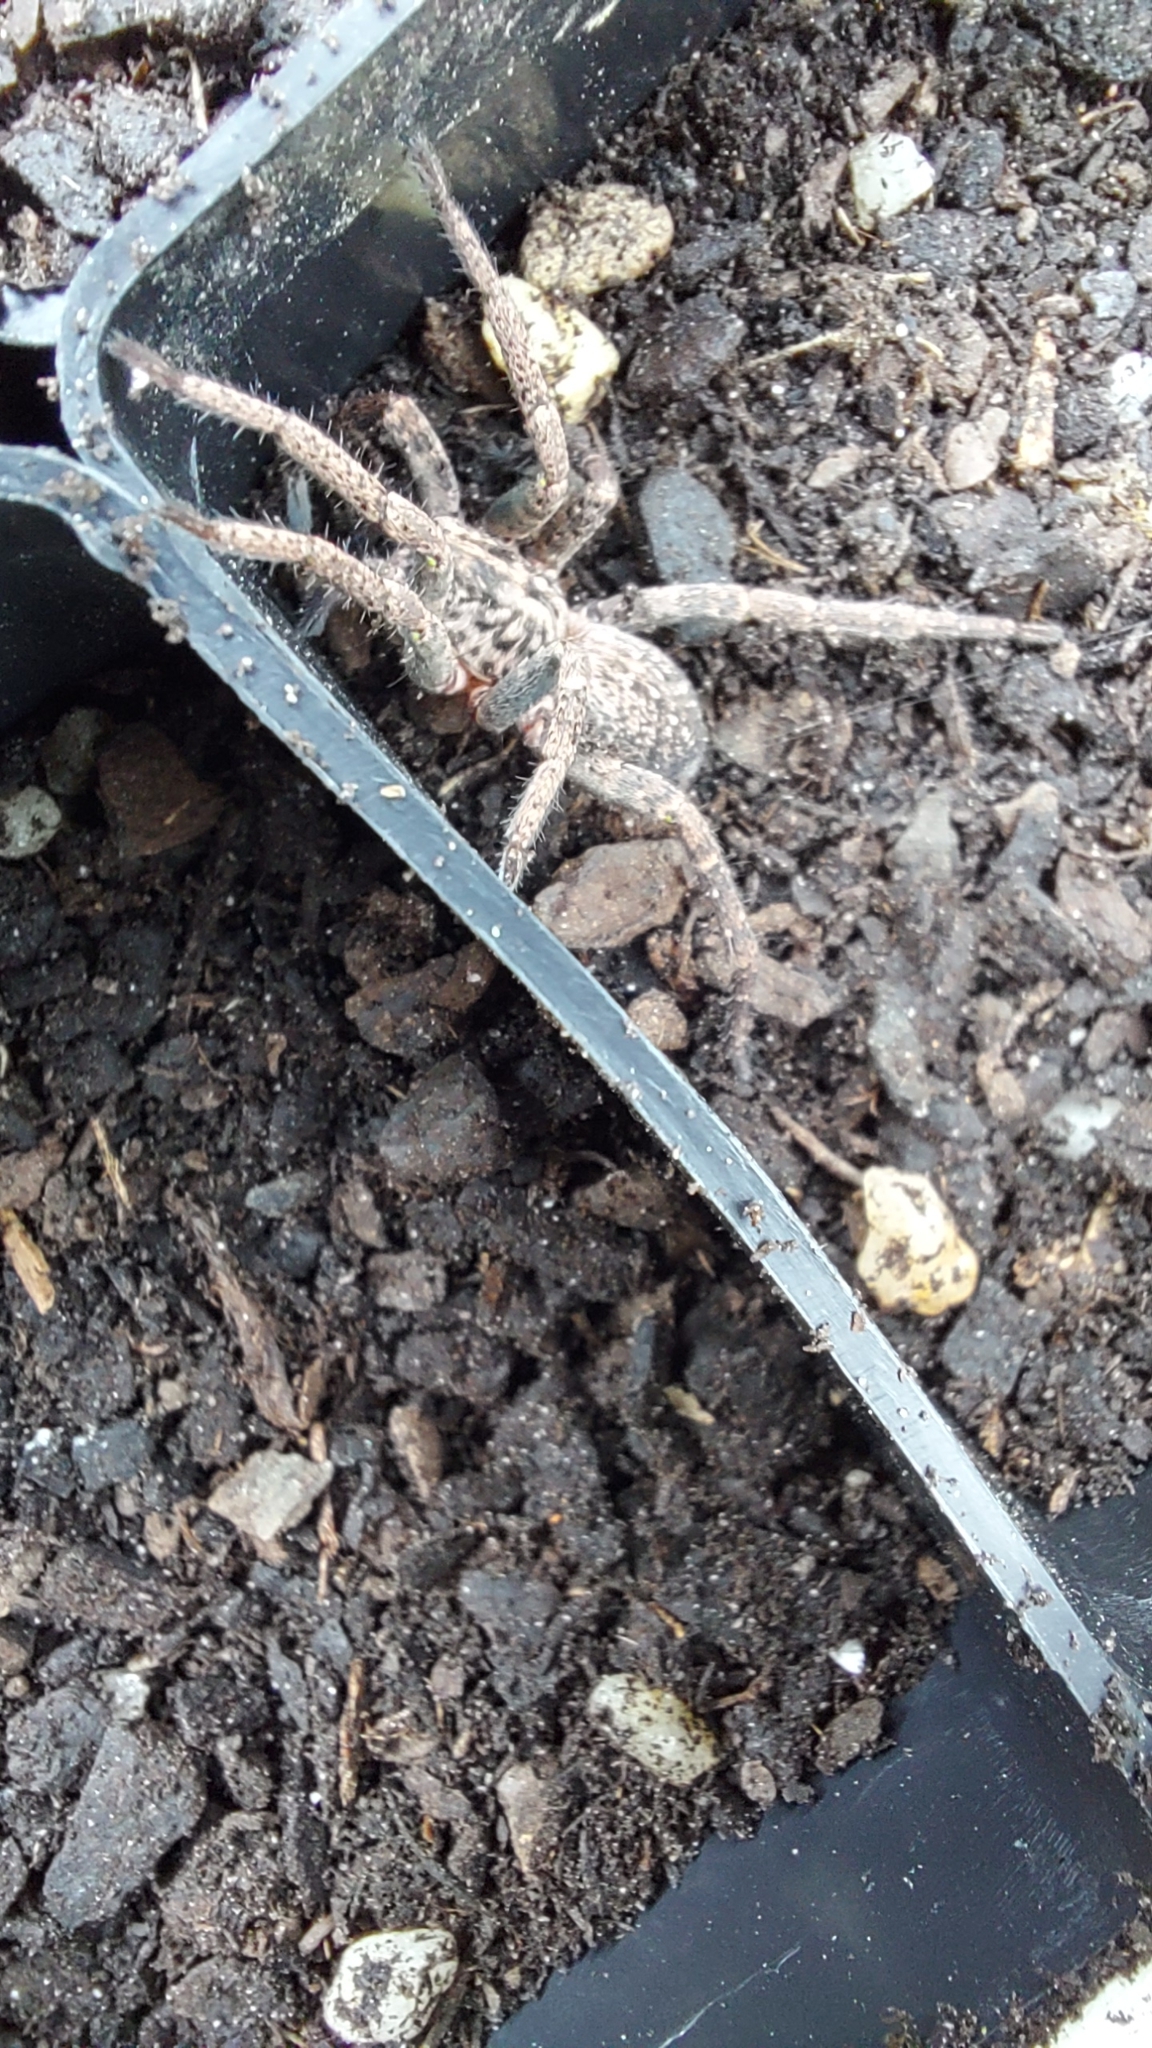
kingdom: Animalia
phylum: Arthropoda
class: Arachnida
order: Araneae
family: Miturgidae
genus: Mituliodon
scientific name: Mituliodon tarantulinus
